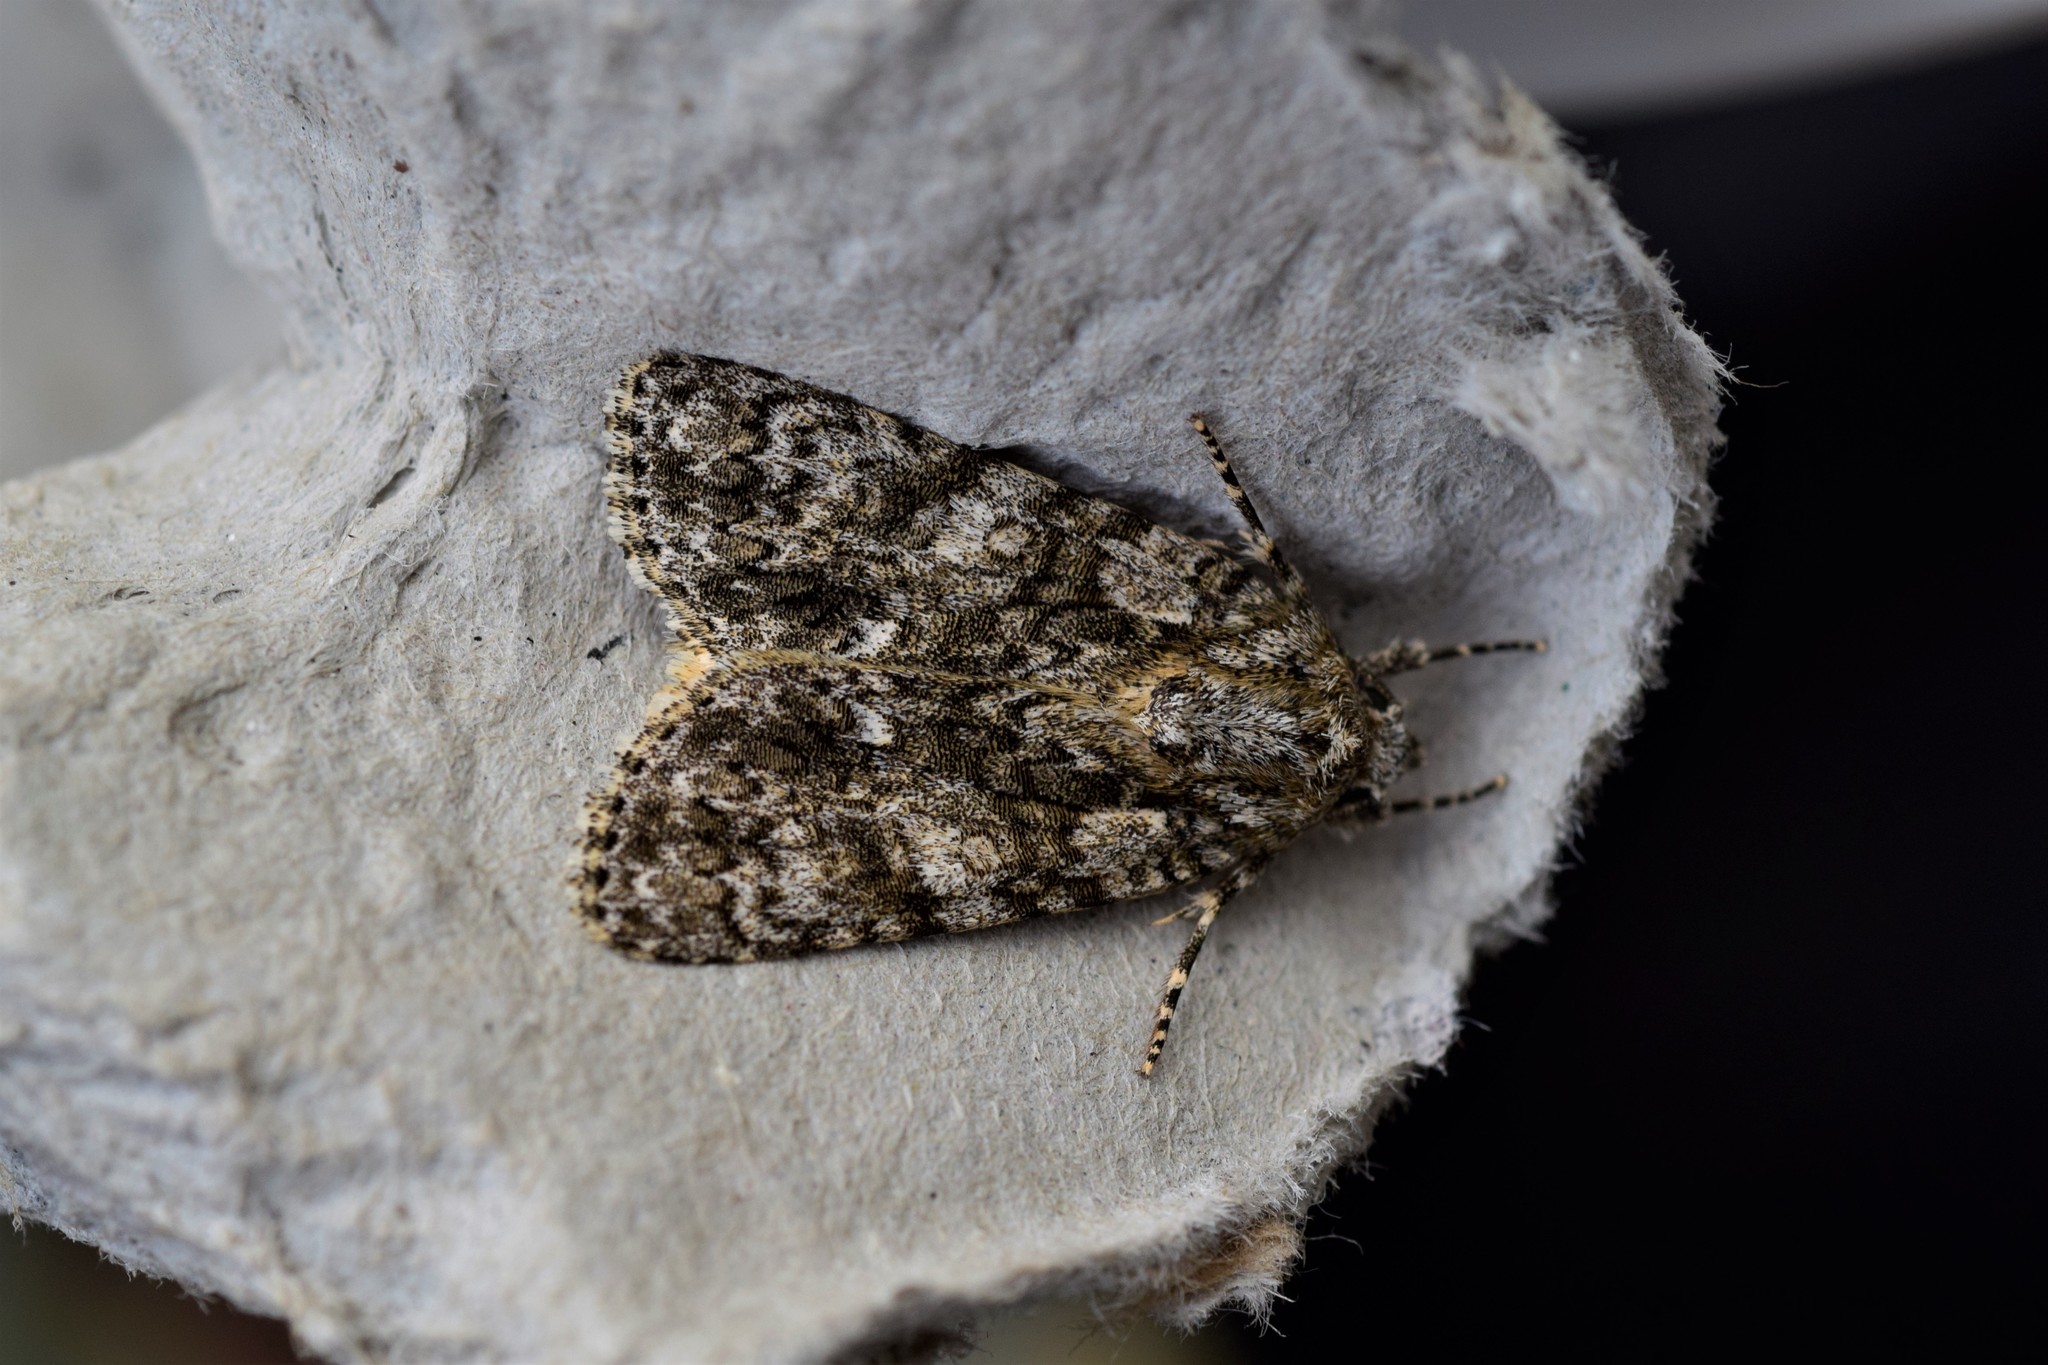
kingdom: Animalia
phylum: Arthropoda
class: Insecta
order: Lepidoptera
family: Noctuidae
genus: Acronicta
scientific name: Acronicta rumicis
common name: Knot grass
